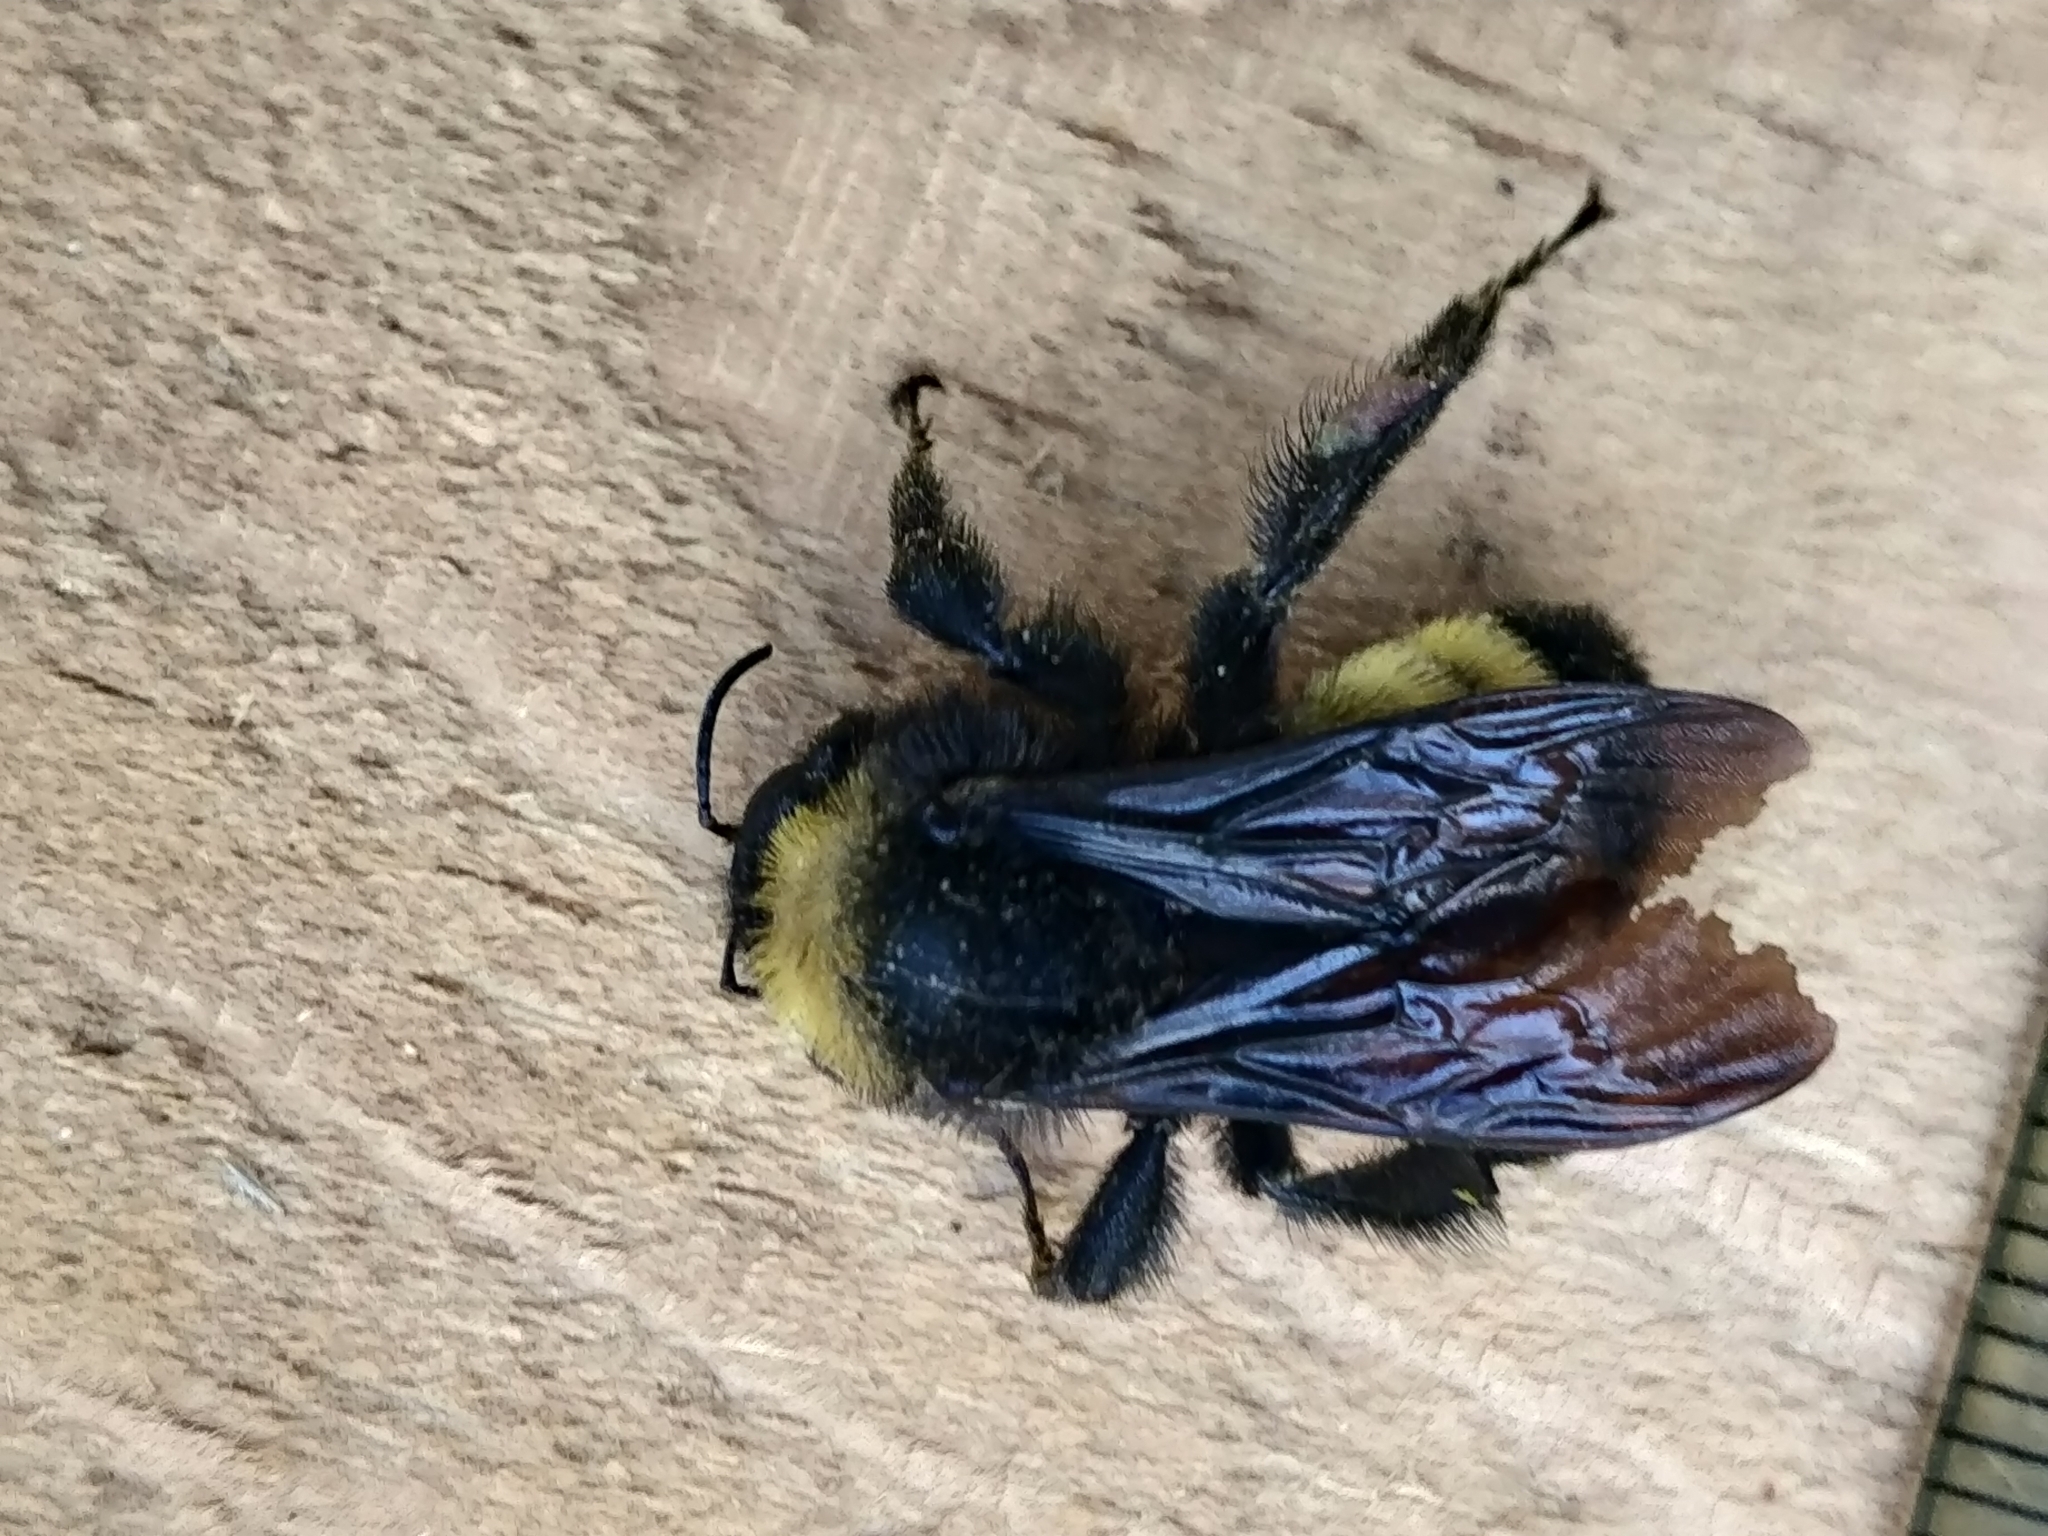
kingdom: Animalia
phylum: Arthropoda
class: Insecta
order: Hymenoptera
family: Apidae
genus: Bombus
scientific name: Bombus pensylvanicus
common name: Bumble bee
